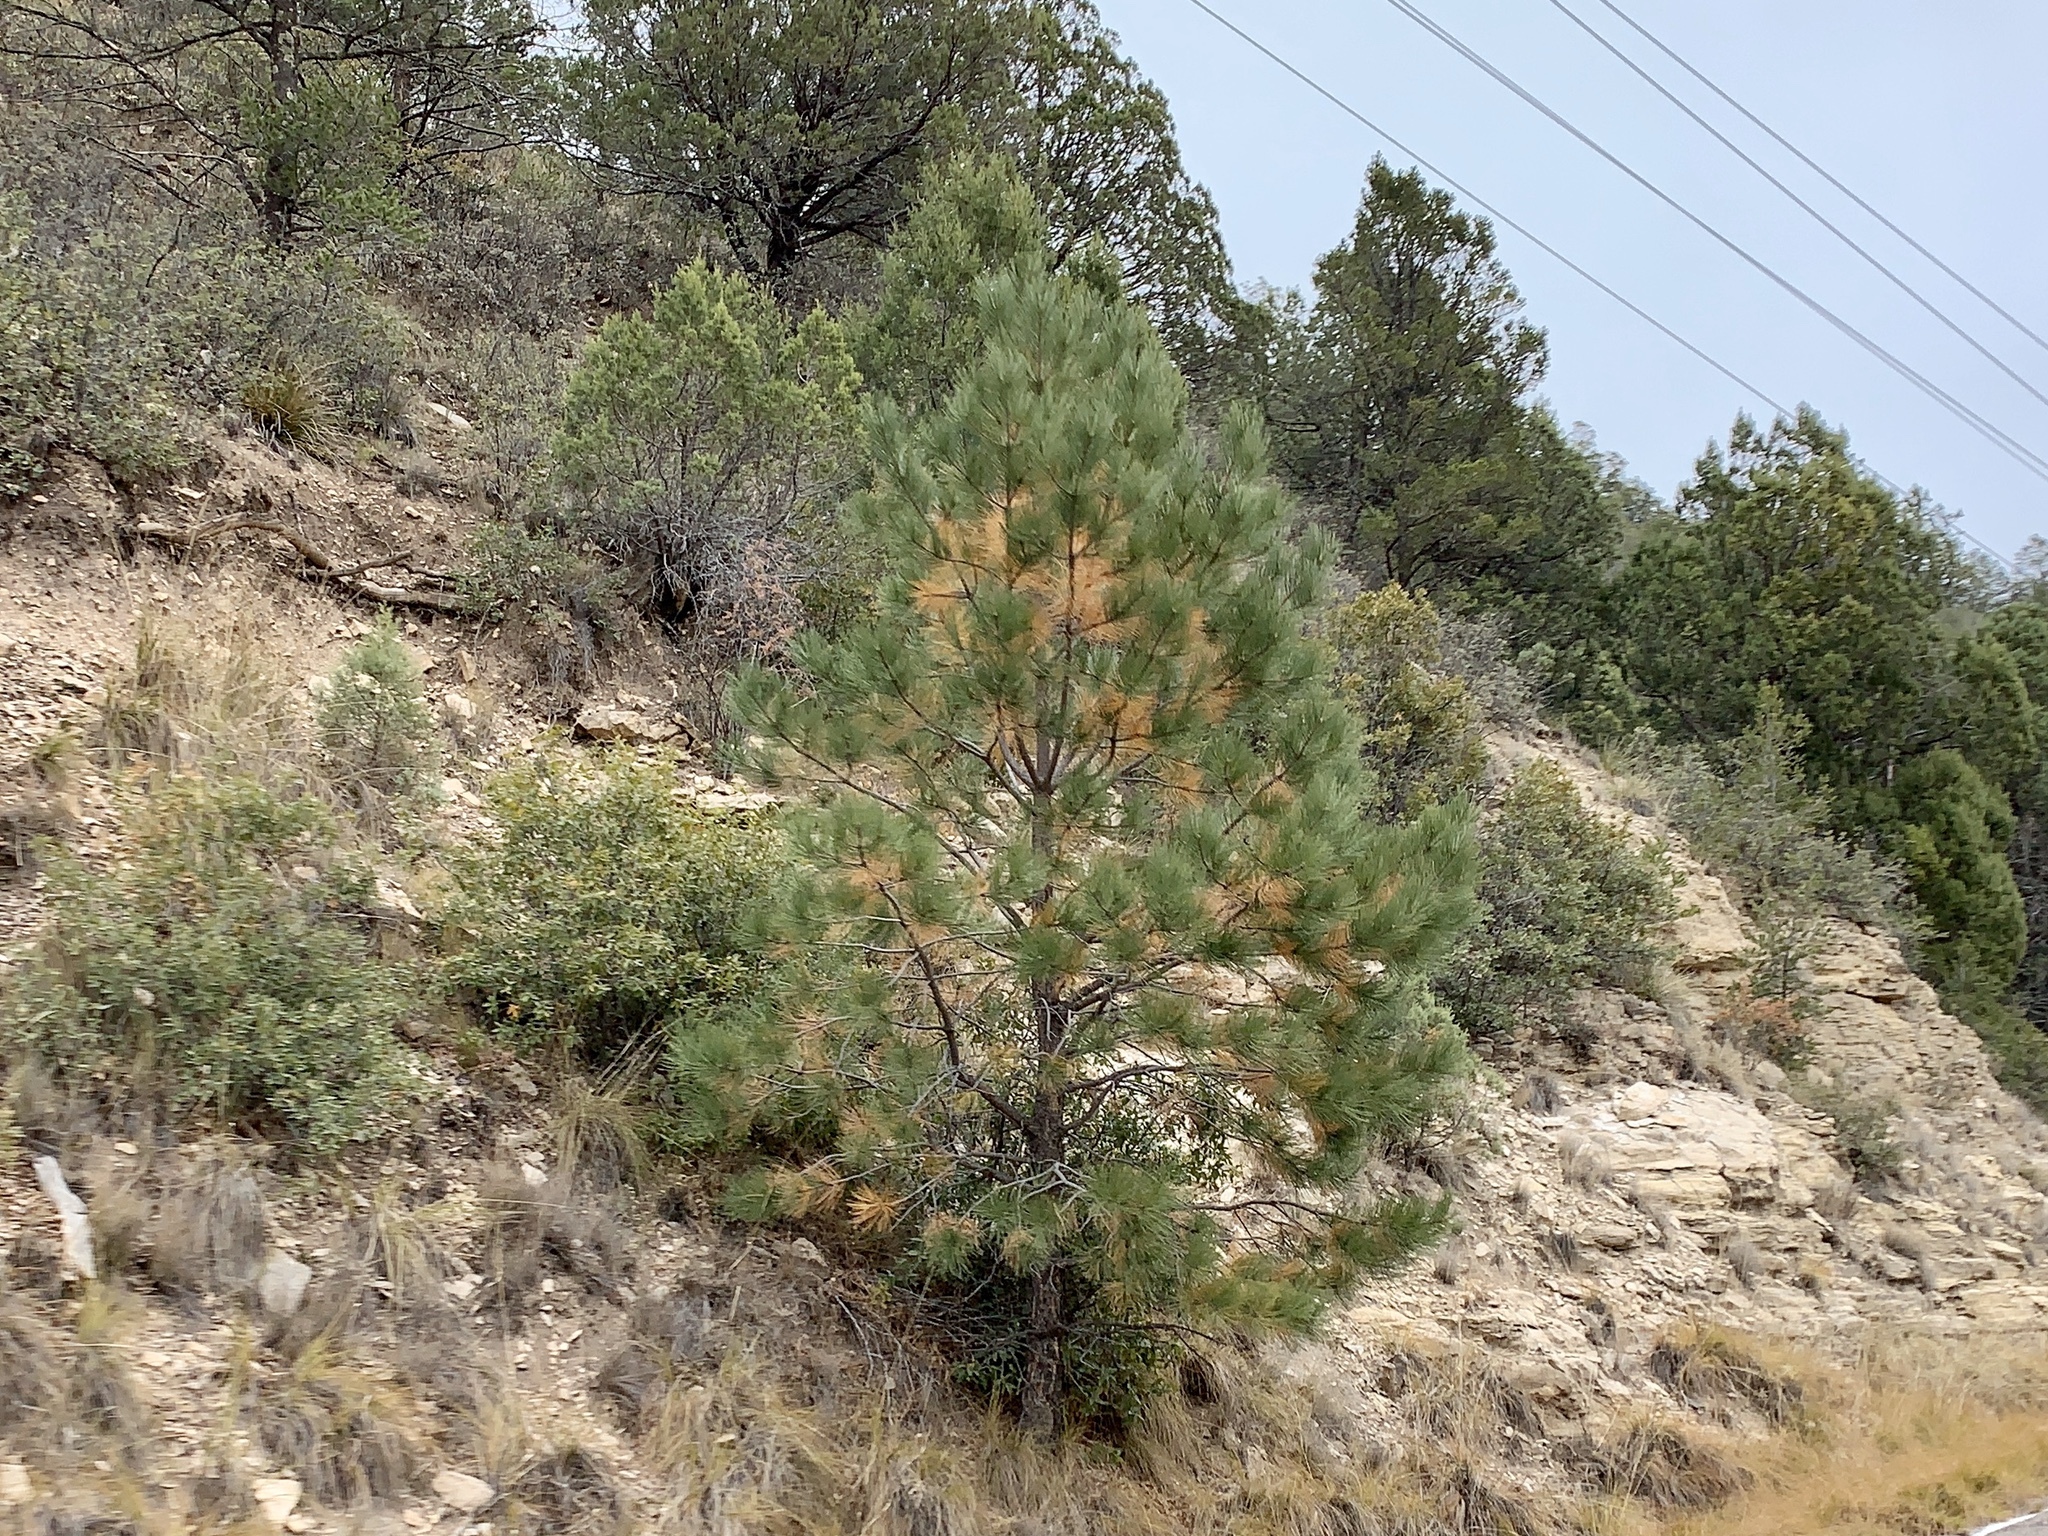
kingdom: Plantae
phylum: Tracheophyta
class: Pinopsida
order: Pinales
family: Pinaceae
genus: Pinus
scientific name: Pinus ponderosa
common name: Western yellow-pine
